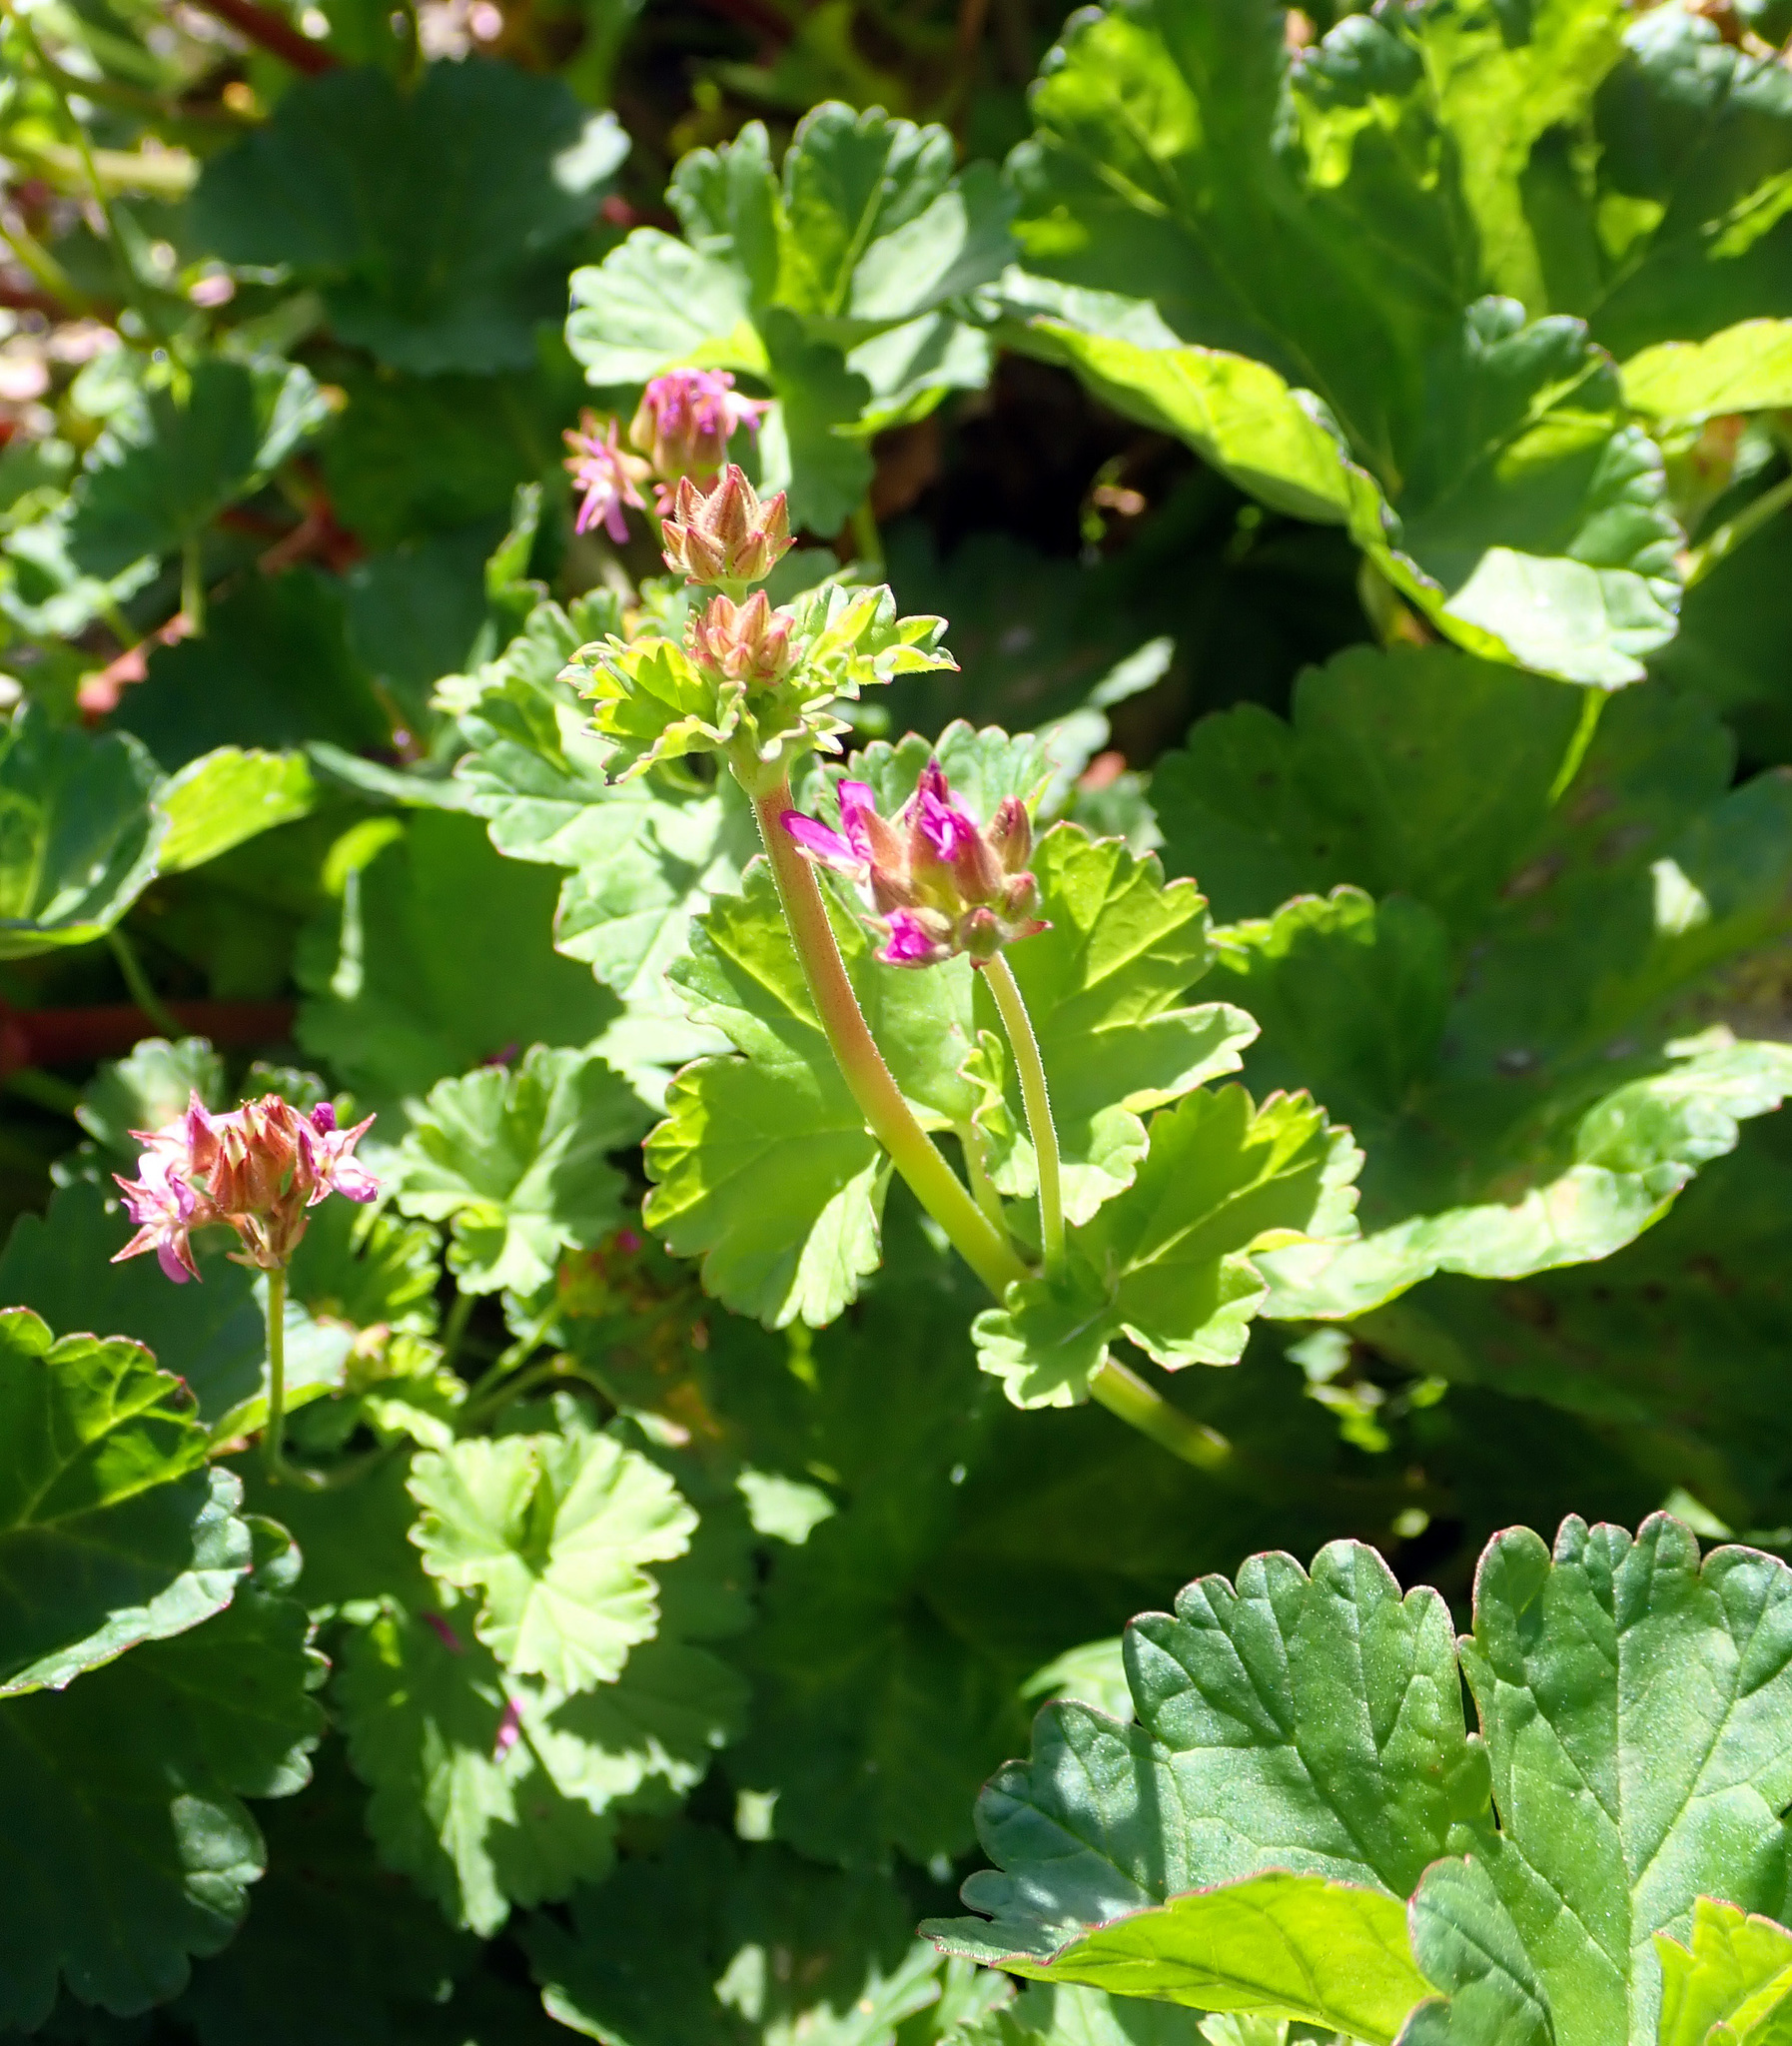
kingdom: Plantae
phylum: Tracheophyta
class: Magnoliopsida
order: Geraniales
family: Geraniaceae
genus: Pelargonium
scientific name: Pelargonium grossularioides
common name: Gooseberry geranium
